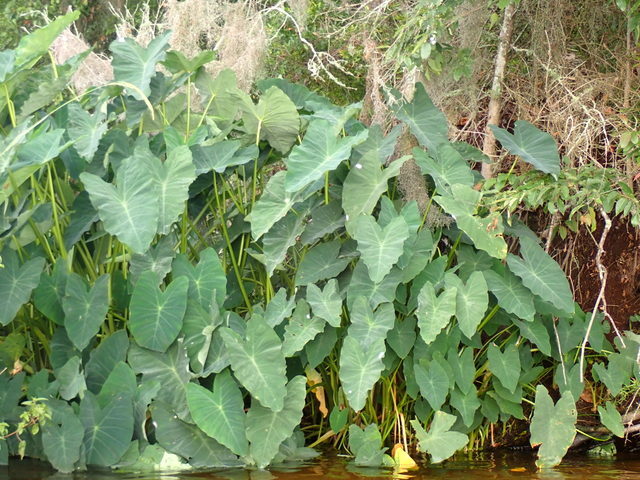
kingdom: Plantae
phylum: Tracheophyta
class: Liliopsida
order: Alismatales
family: Araceae
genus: Colocasia
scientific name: Colocasia esculenta
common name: Taro
